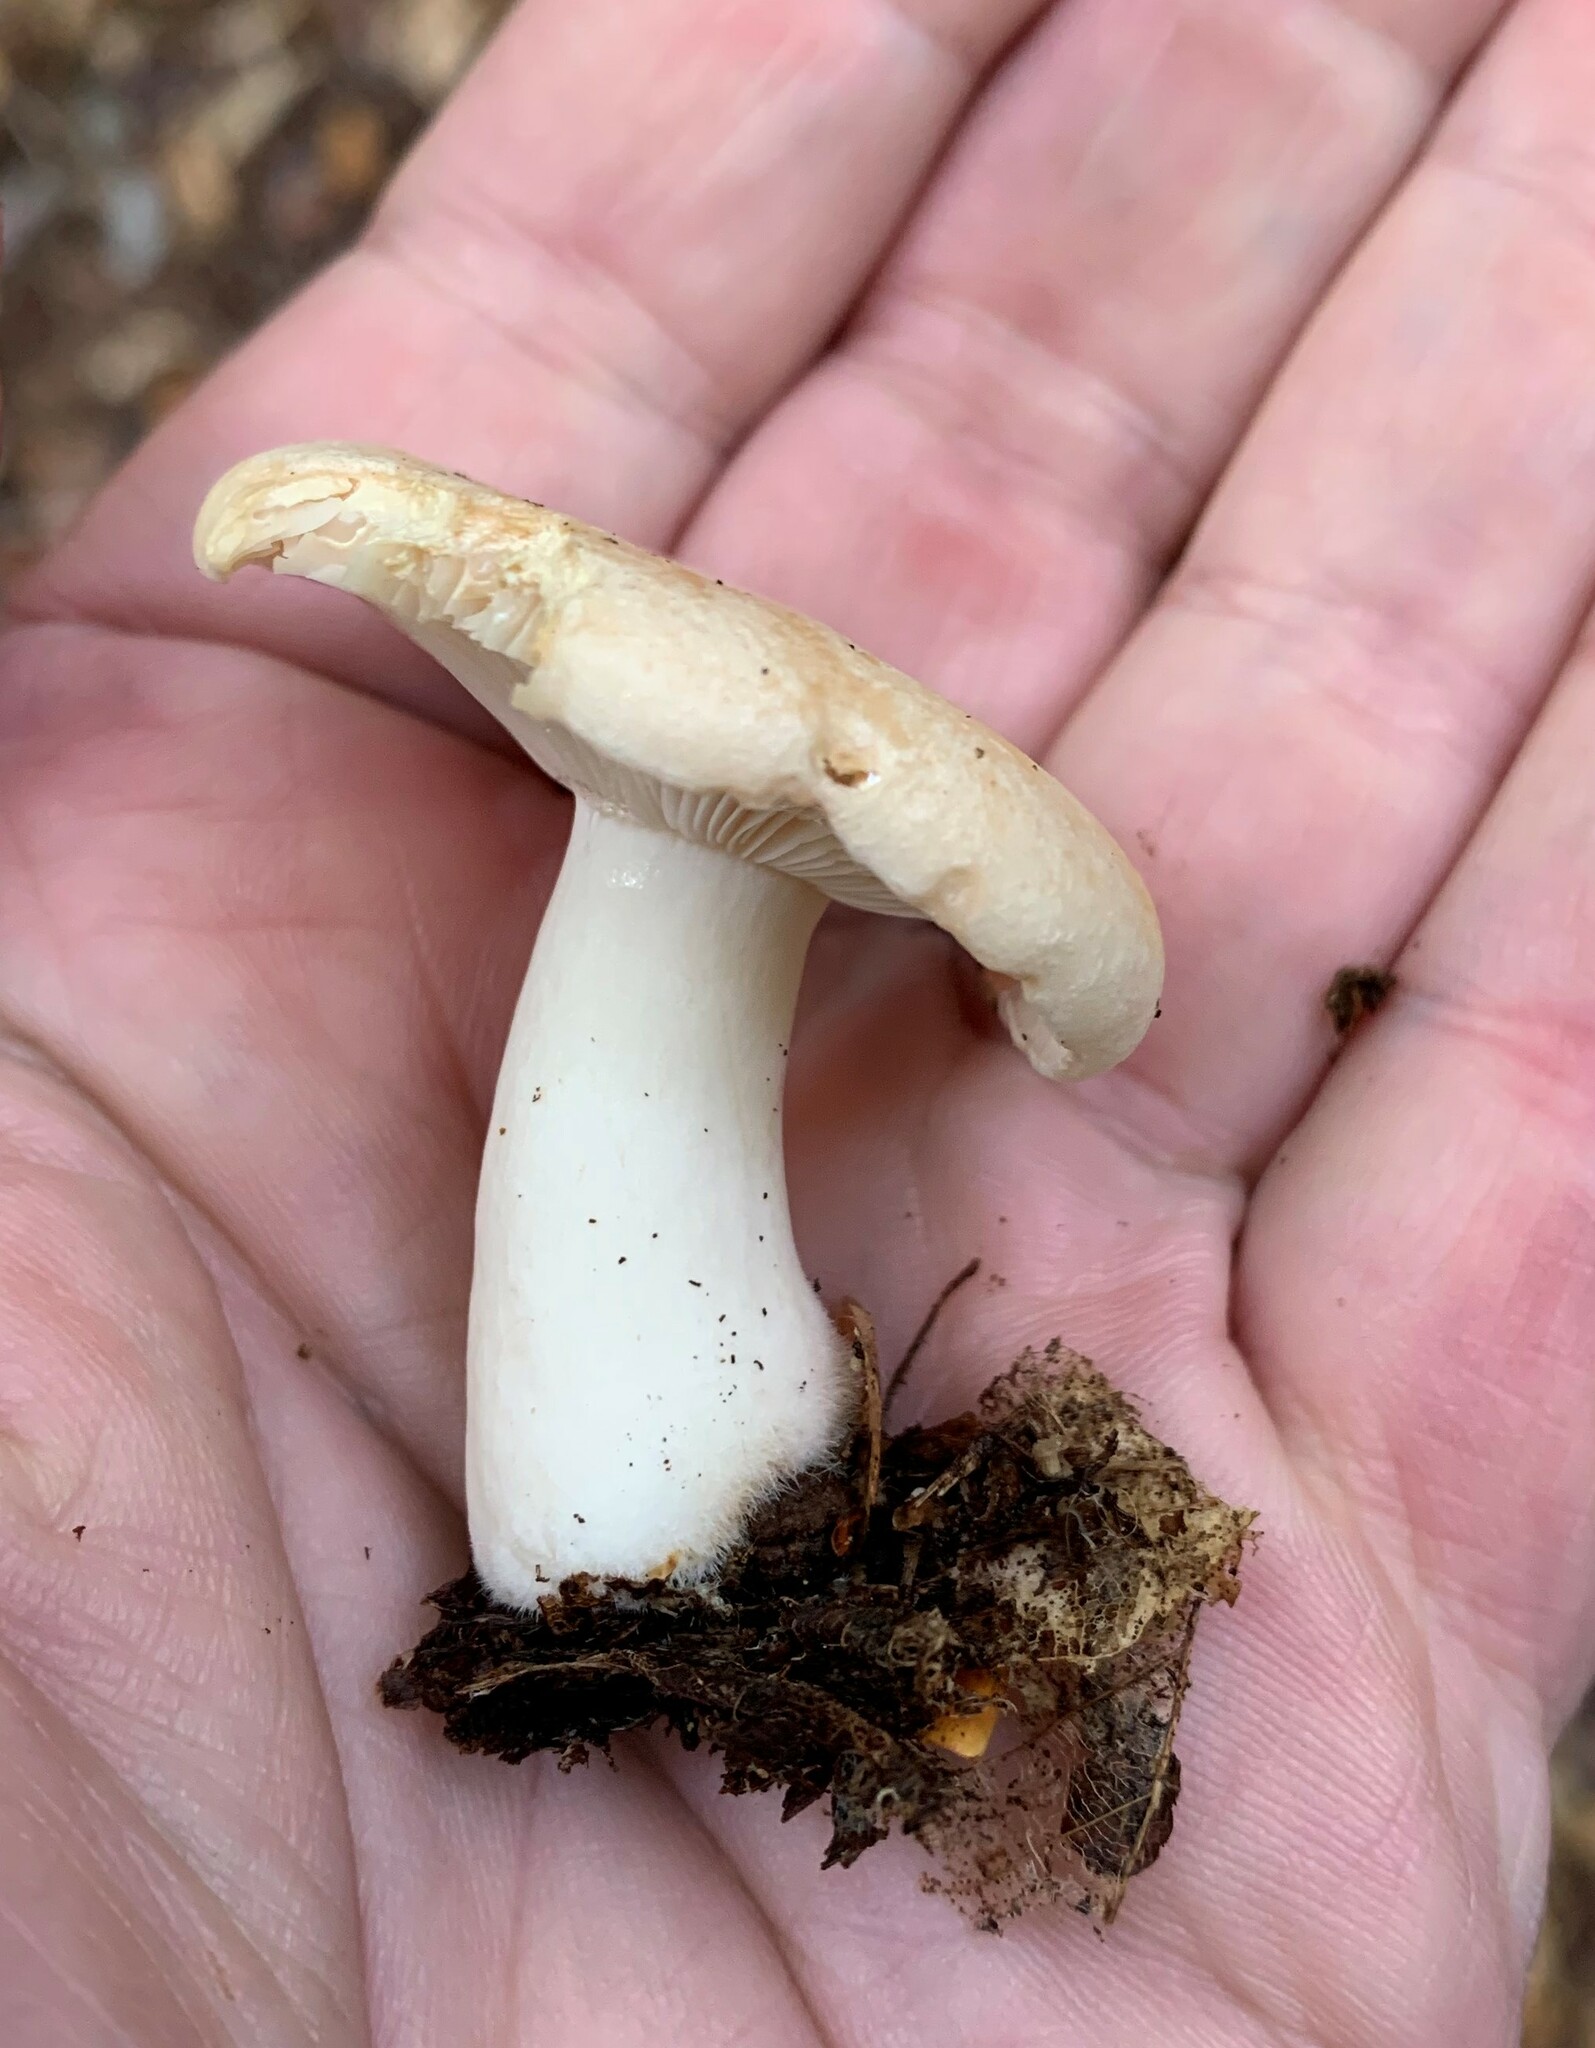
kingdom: Fungi
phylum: Basidiomycota
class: Agaricomycetes
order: Russulales
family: Russulaceae
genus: Lactarius
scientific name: Lactarius chrysorrheus
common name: Yellowdrop milkcap
